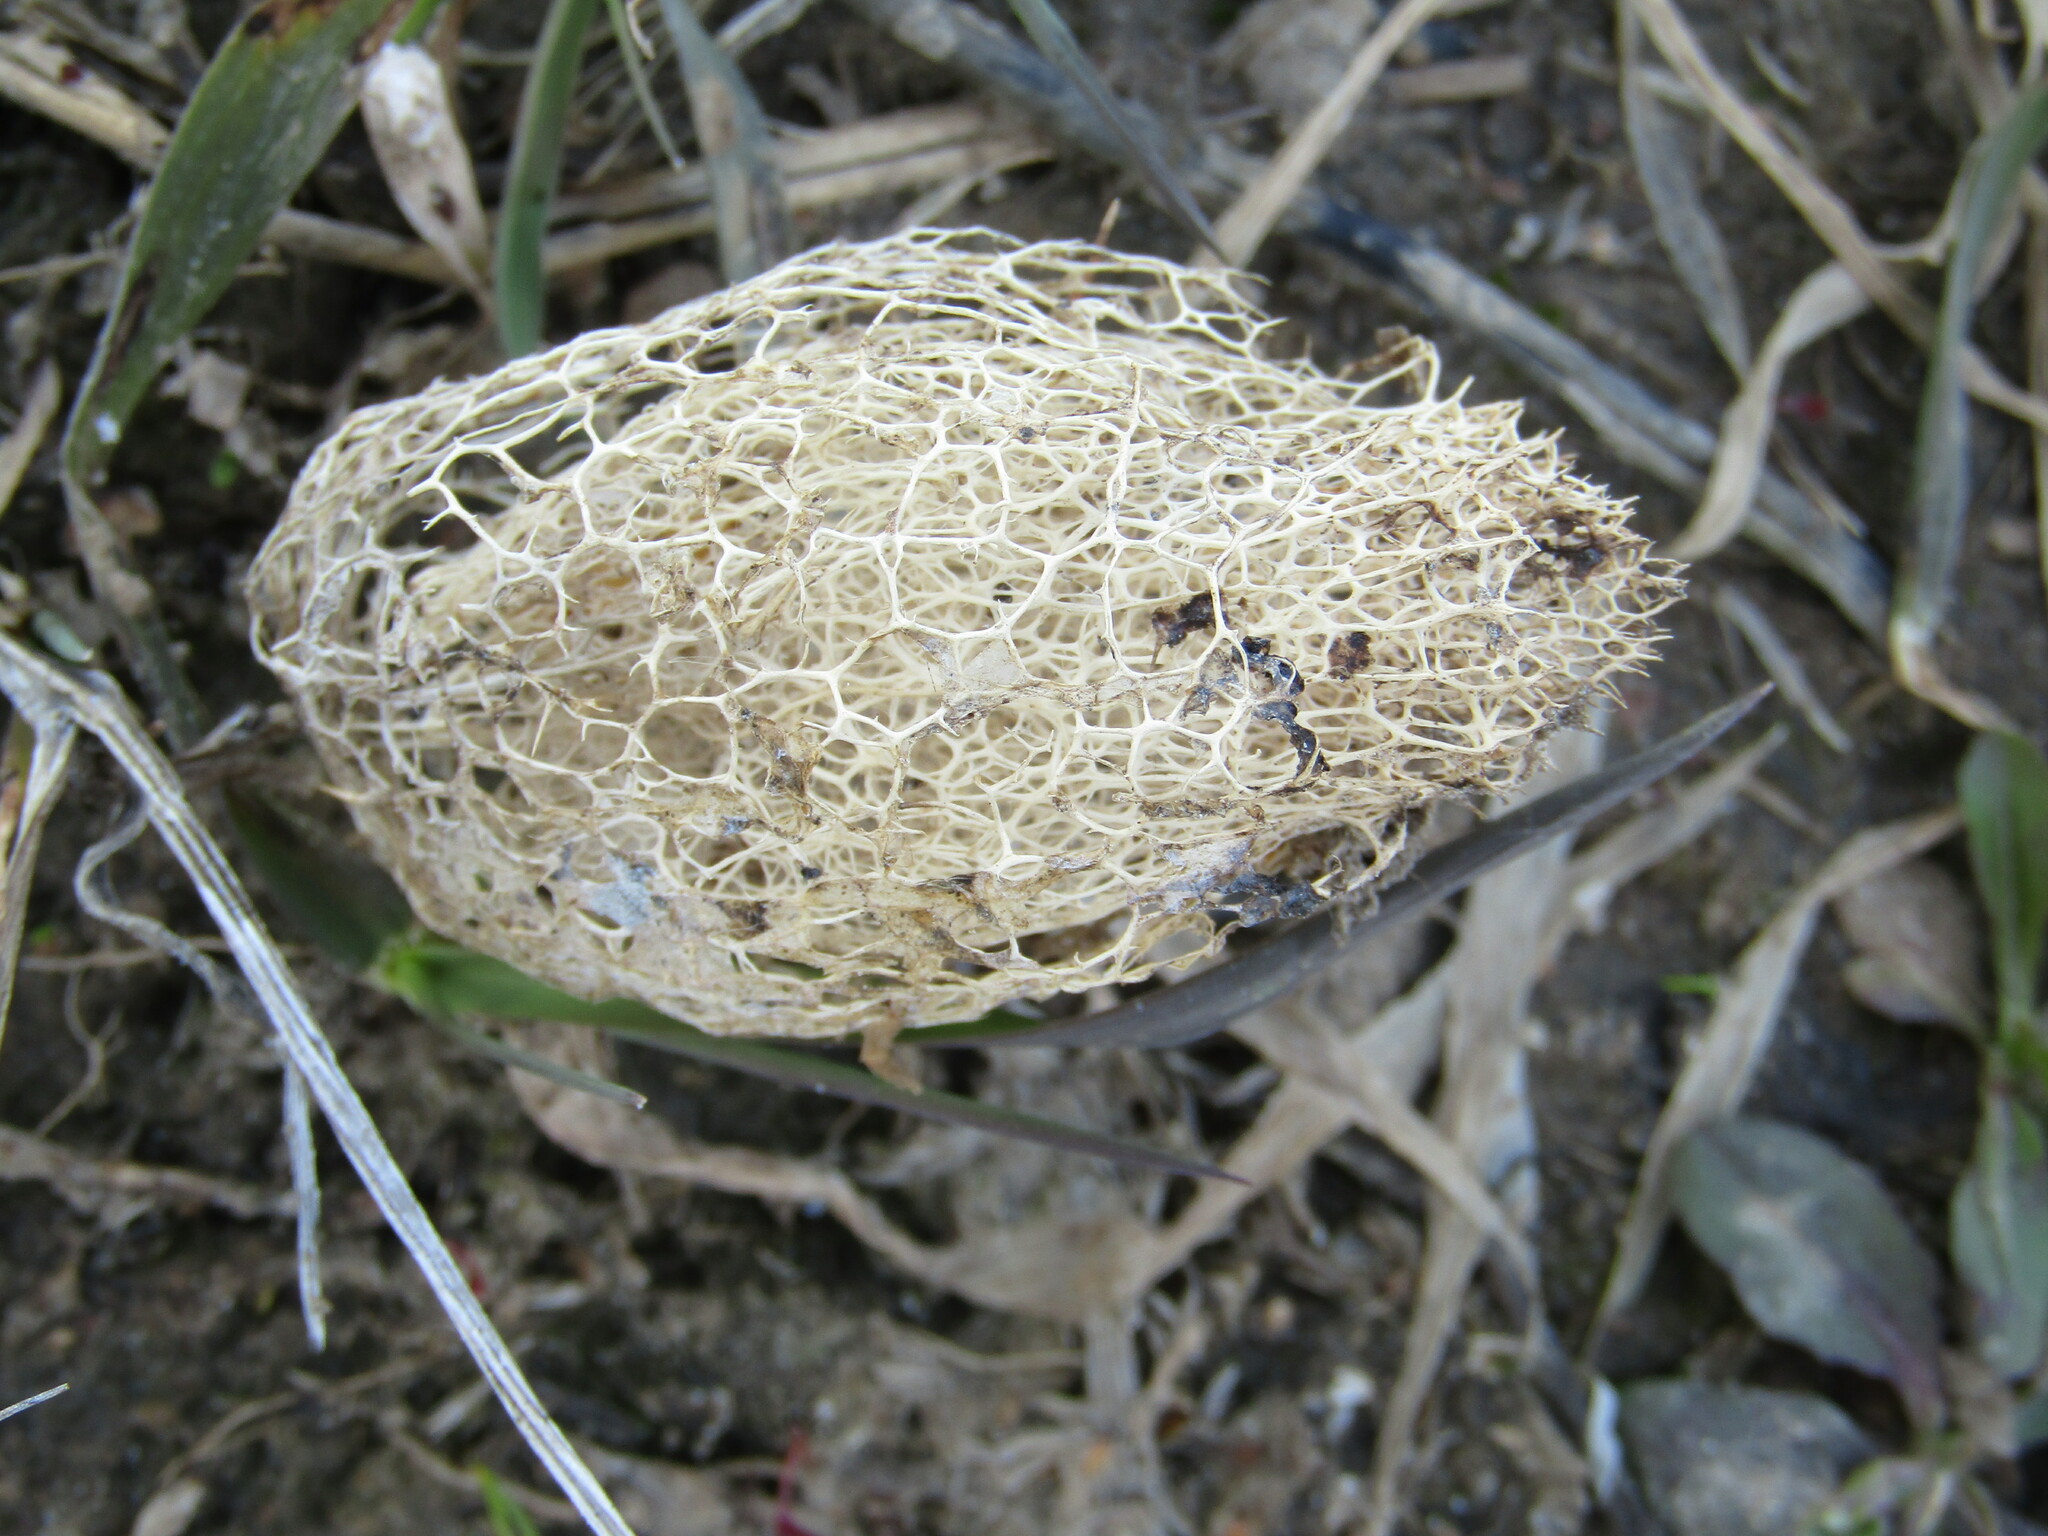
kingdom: Plantae
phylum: Tracheophyta
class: Magnoliopsida
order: Cucurbitales
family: Cucurbitaceae
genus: Echinocystis
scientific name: Echinocystis lobata
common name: Wild cucumber
